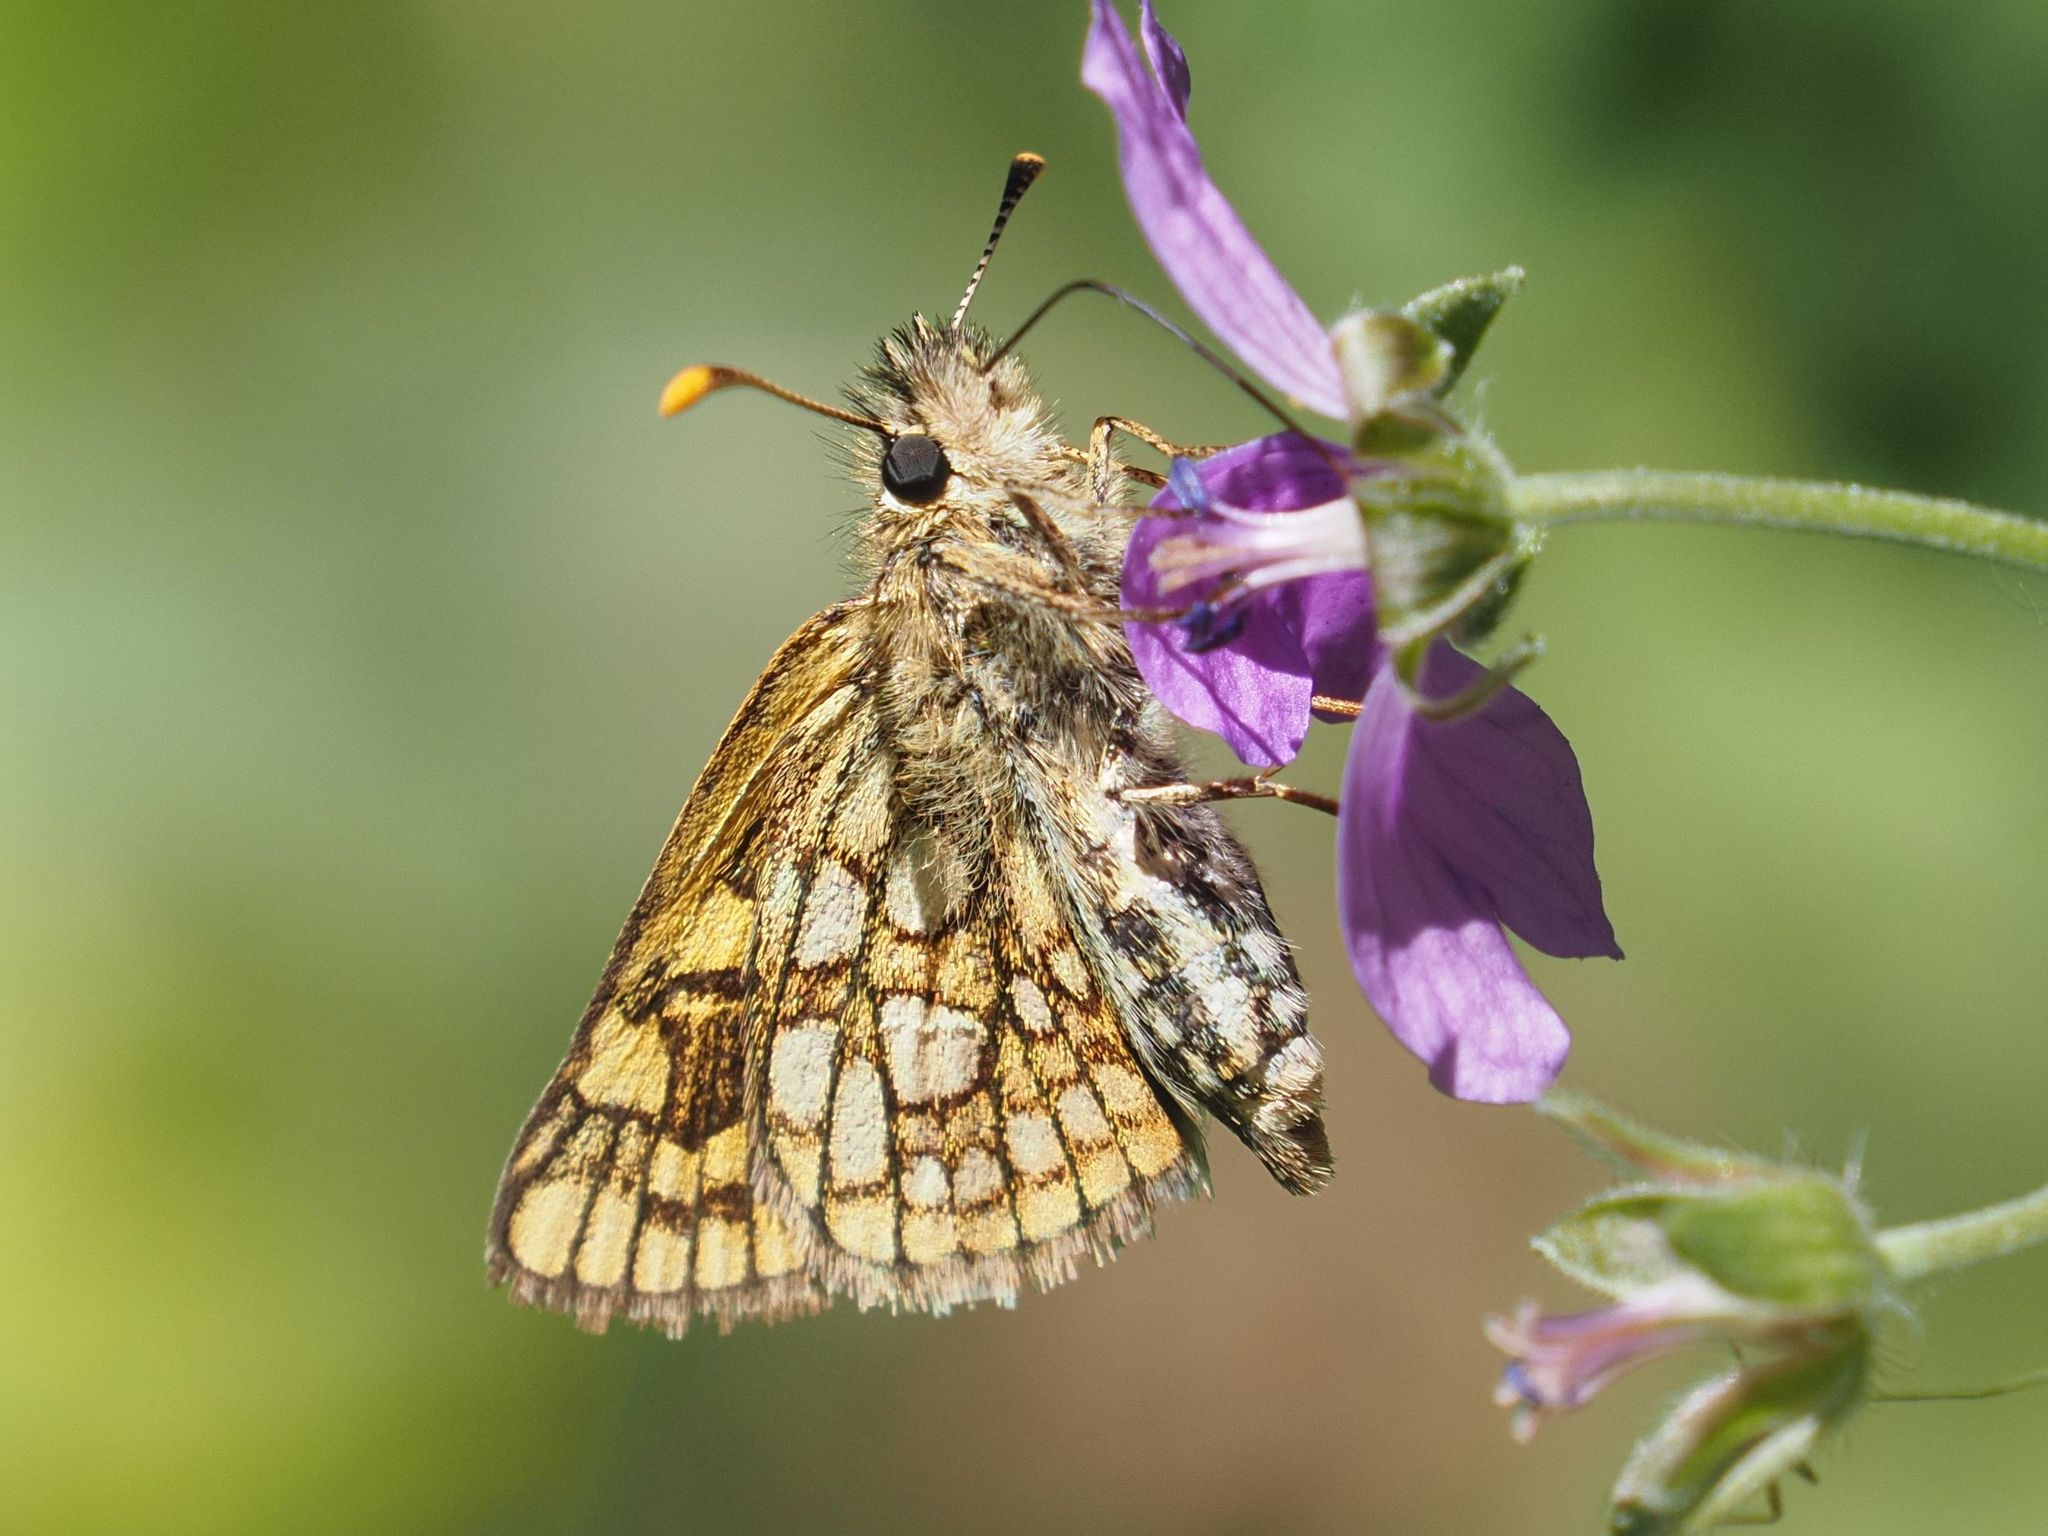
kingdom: Animalia
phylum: Arthropoda
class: Insecta
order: Lepidoptera
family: Hesperiidae
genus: Carterocephalus
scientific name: Carterocephalus palaemon
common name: Chequered skipper
